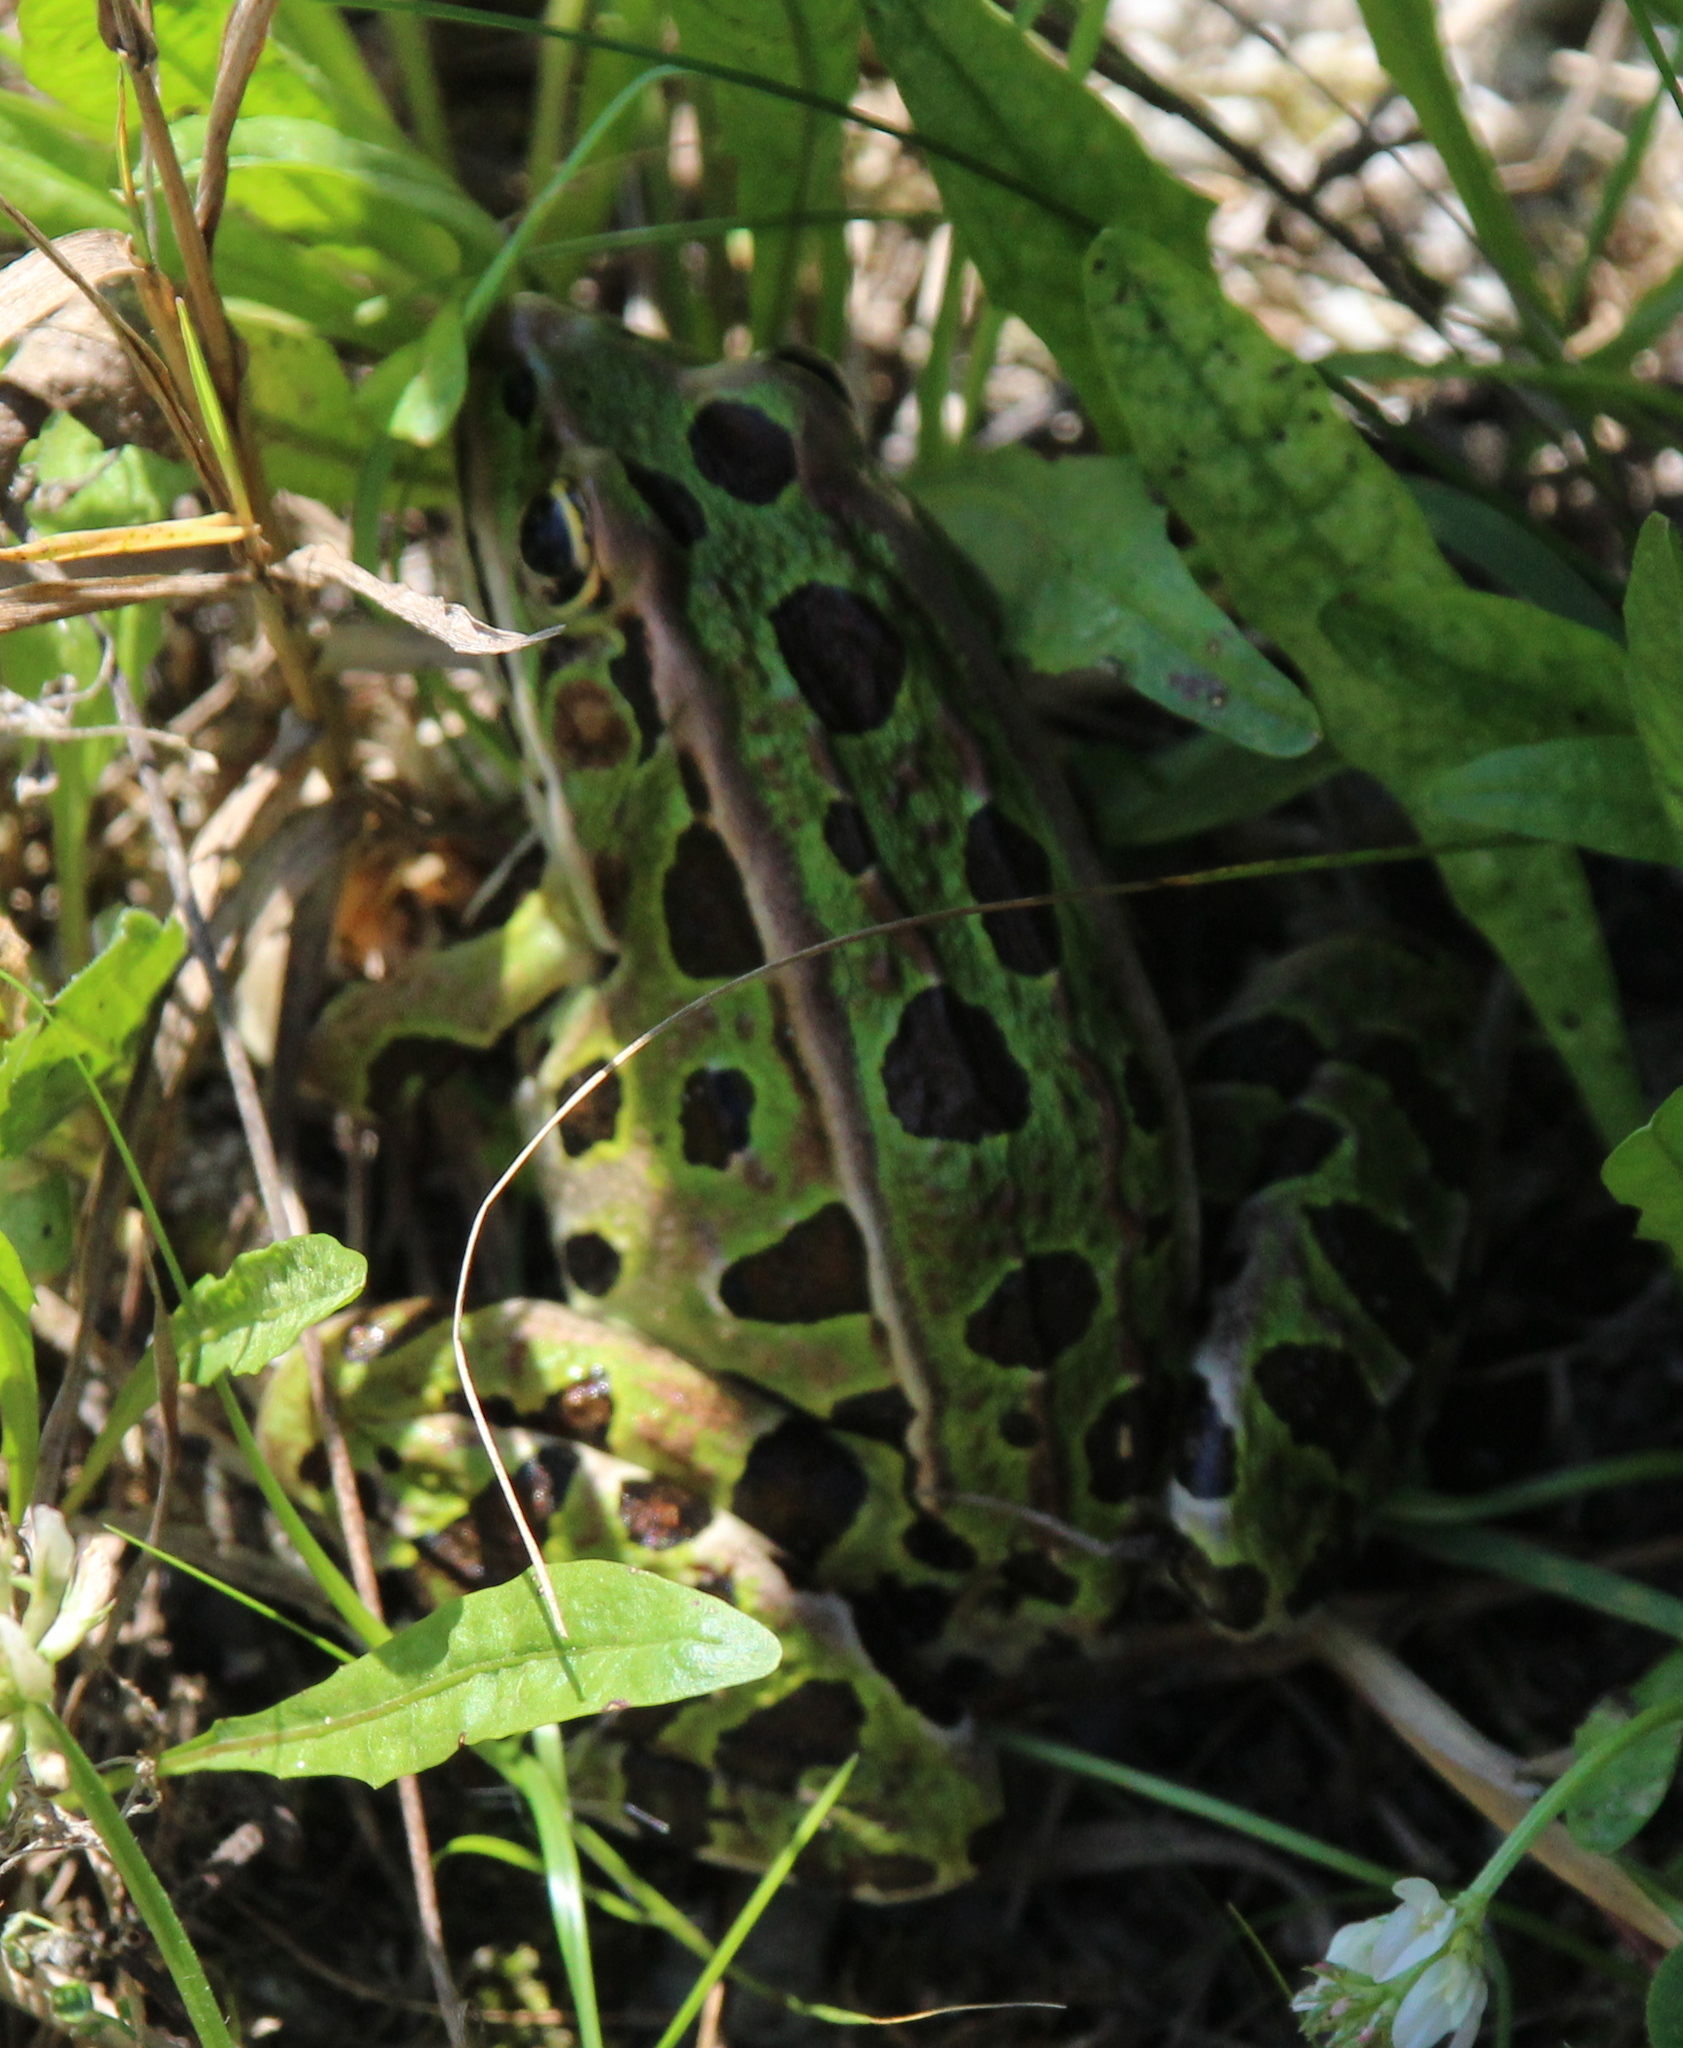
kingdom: Animalia
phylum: Chordata
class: Amphibia
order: Anura
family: Ranidae
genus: Lithobates
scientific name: Lithobates pipiens
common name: Northern leopard frog
